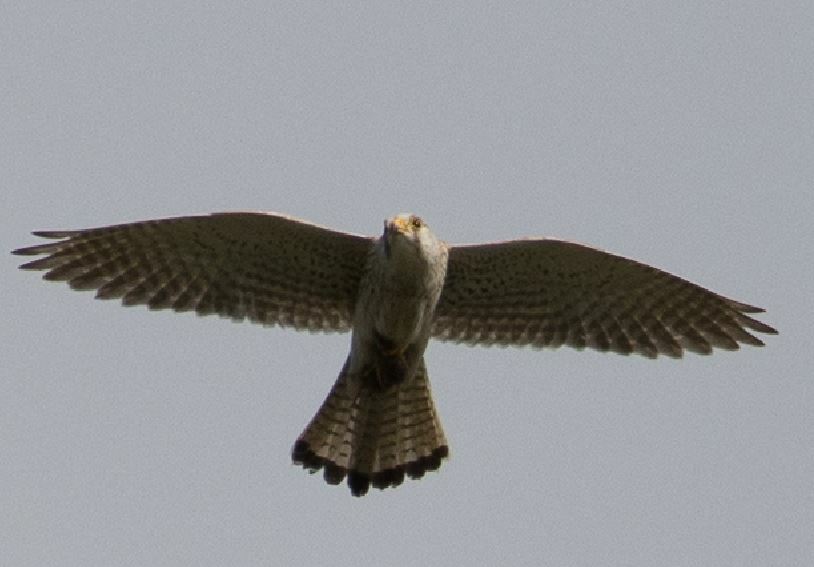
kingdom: Animalia
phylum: Chordata
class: Aves
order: Falconiformes
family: Falconidae
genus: Falco
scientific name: Falco tinnunculus
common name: Common kestrel
